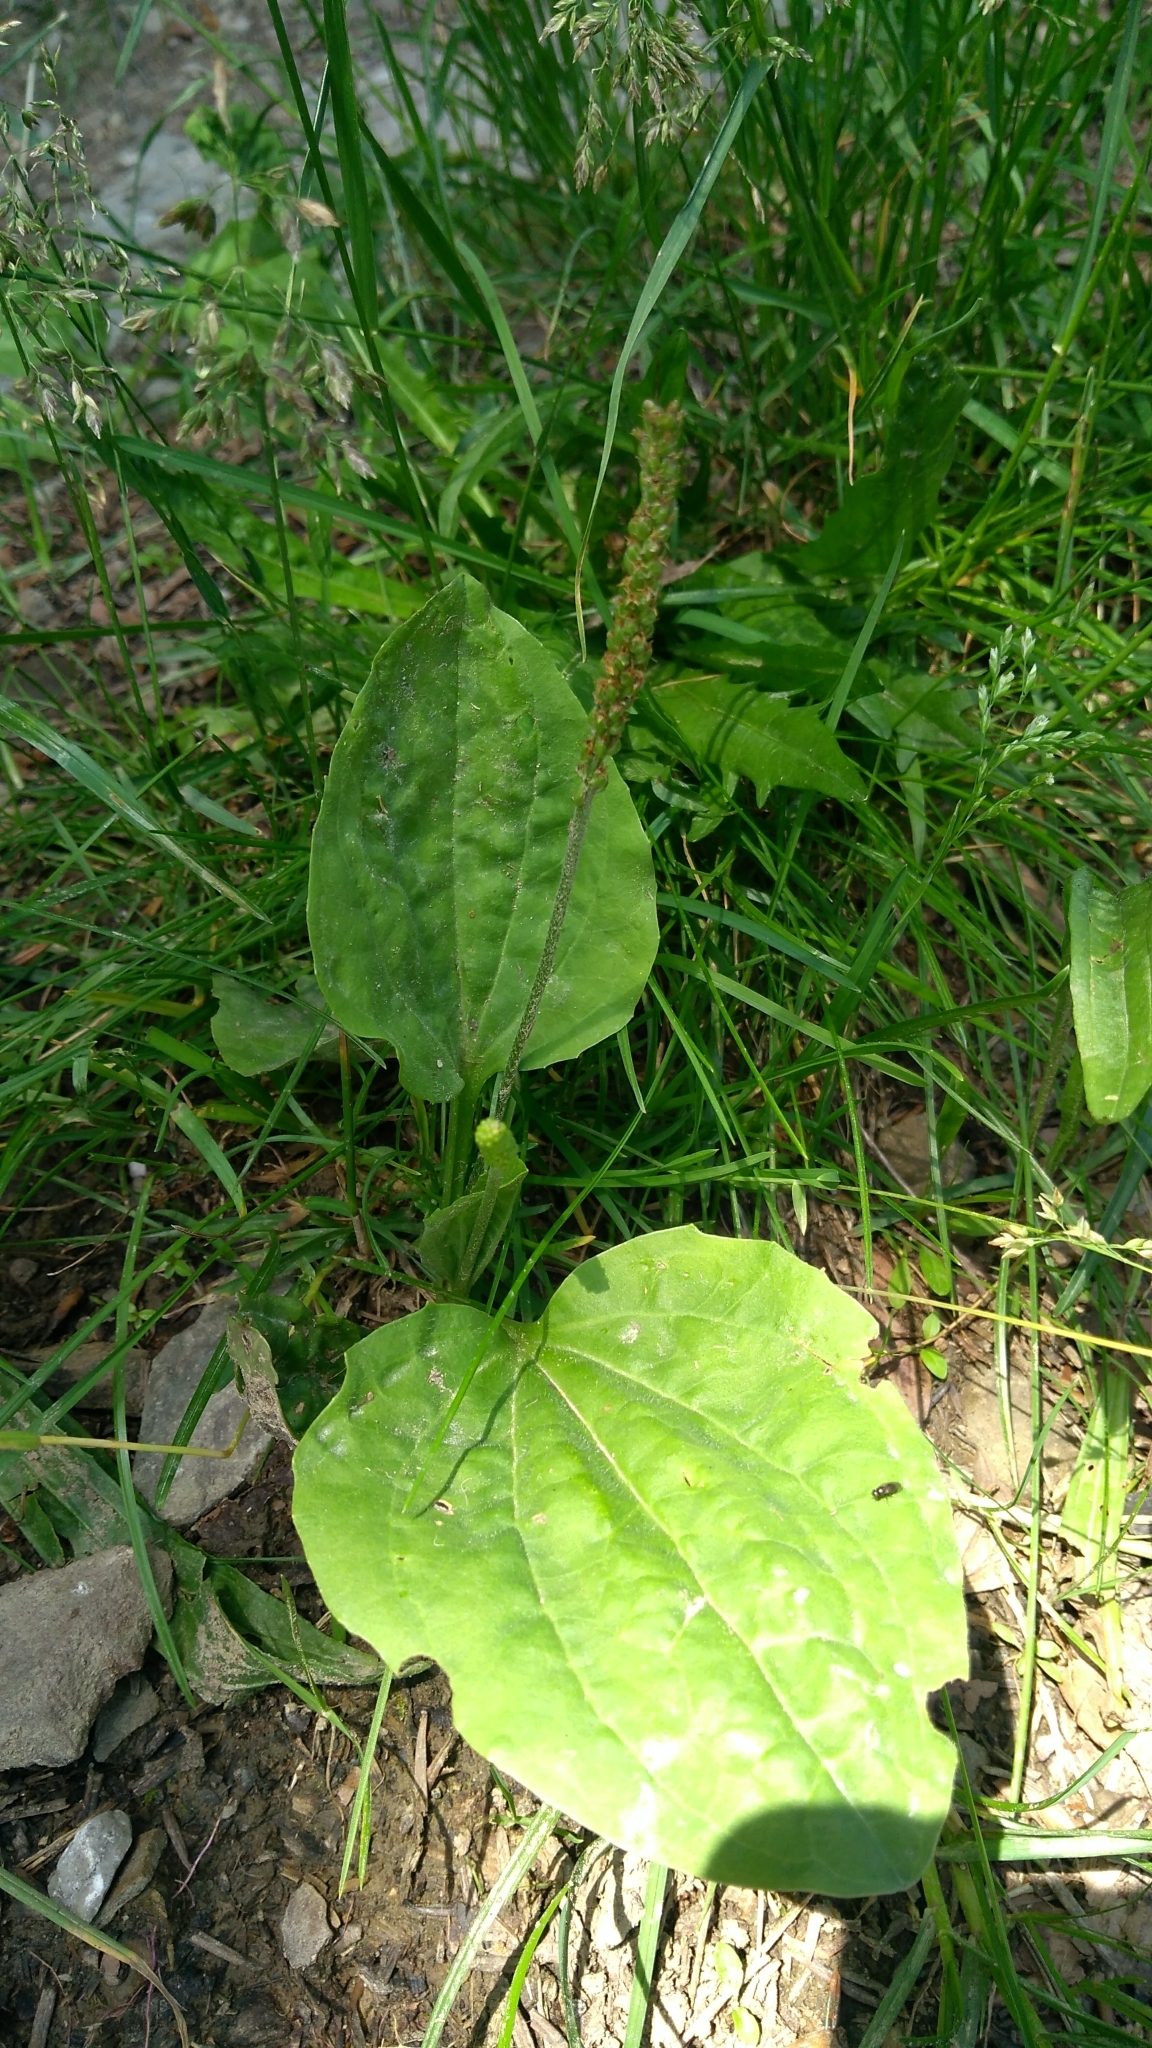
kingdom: Plantae
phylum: Tracheophyta
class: Magnoliopsida
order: Lamiales
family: Plantaginaceae
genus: Plantago
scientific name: Plantago major
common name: Common plantain
